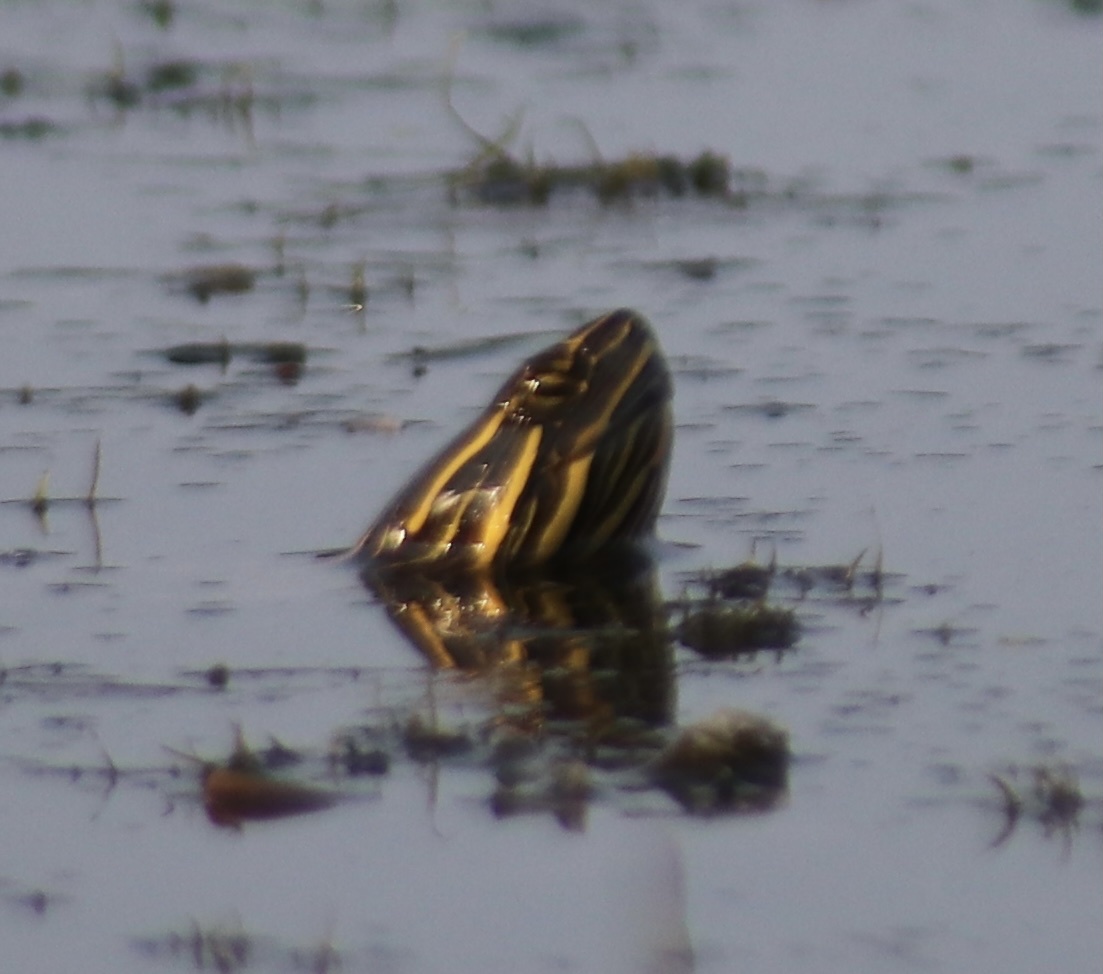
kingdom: Animalia
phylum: Chordata
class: Testudines
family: Emydidae
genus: Chrysemys
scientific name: Chrysemys picta
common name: Painted turtle
